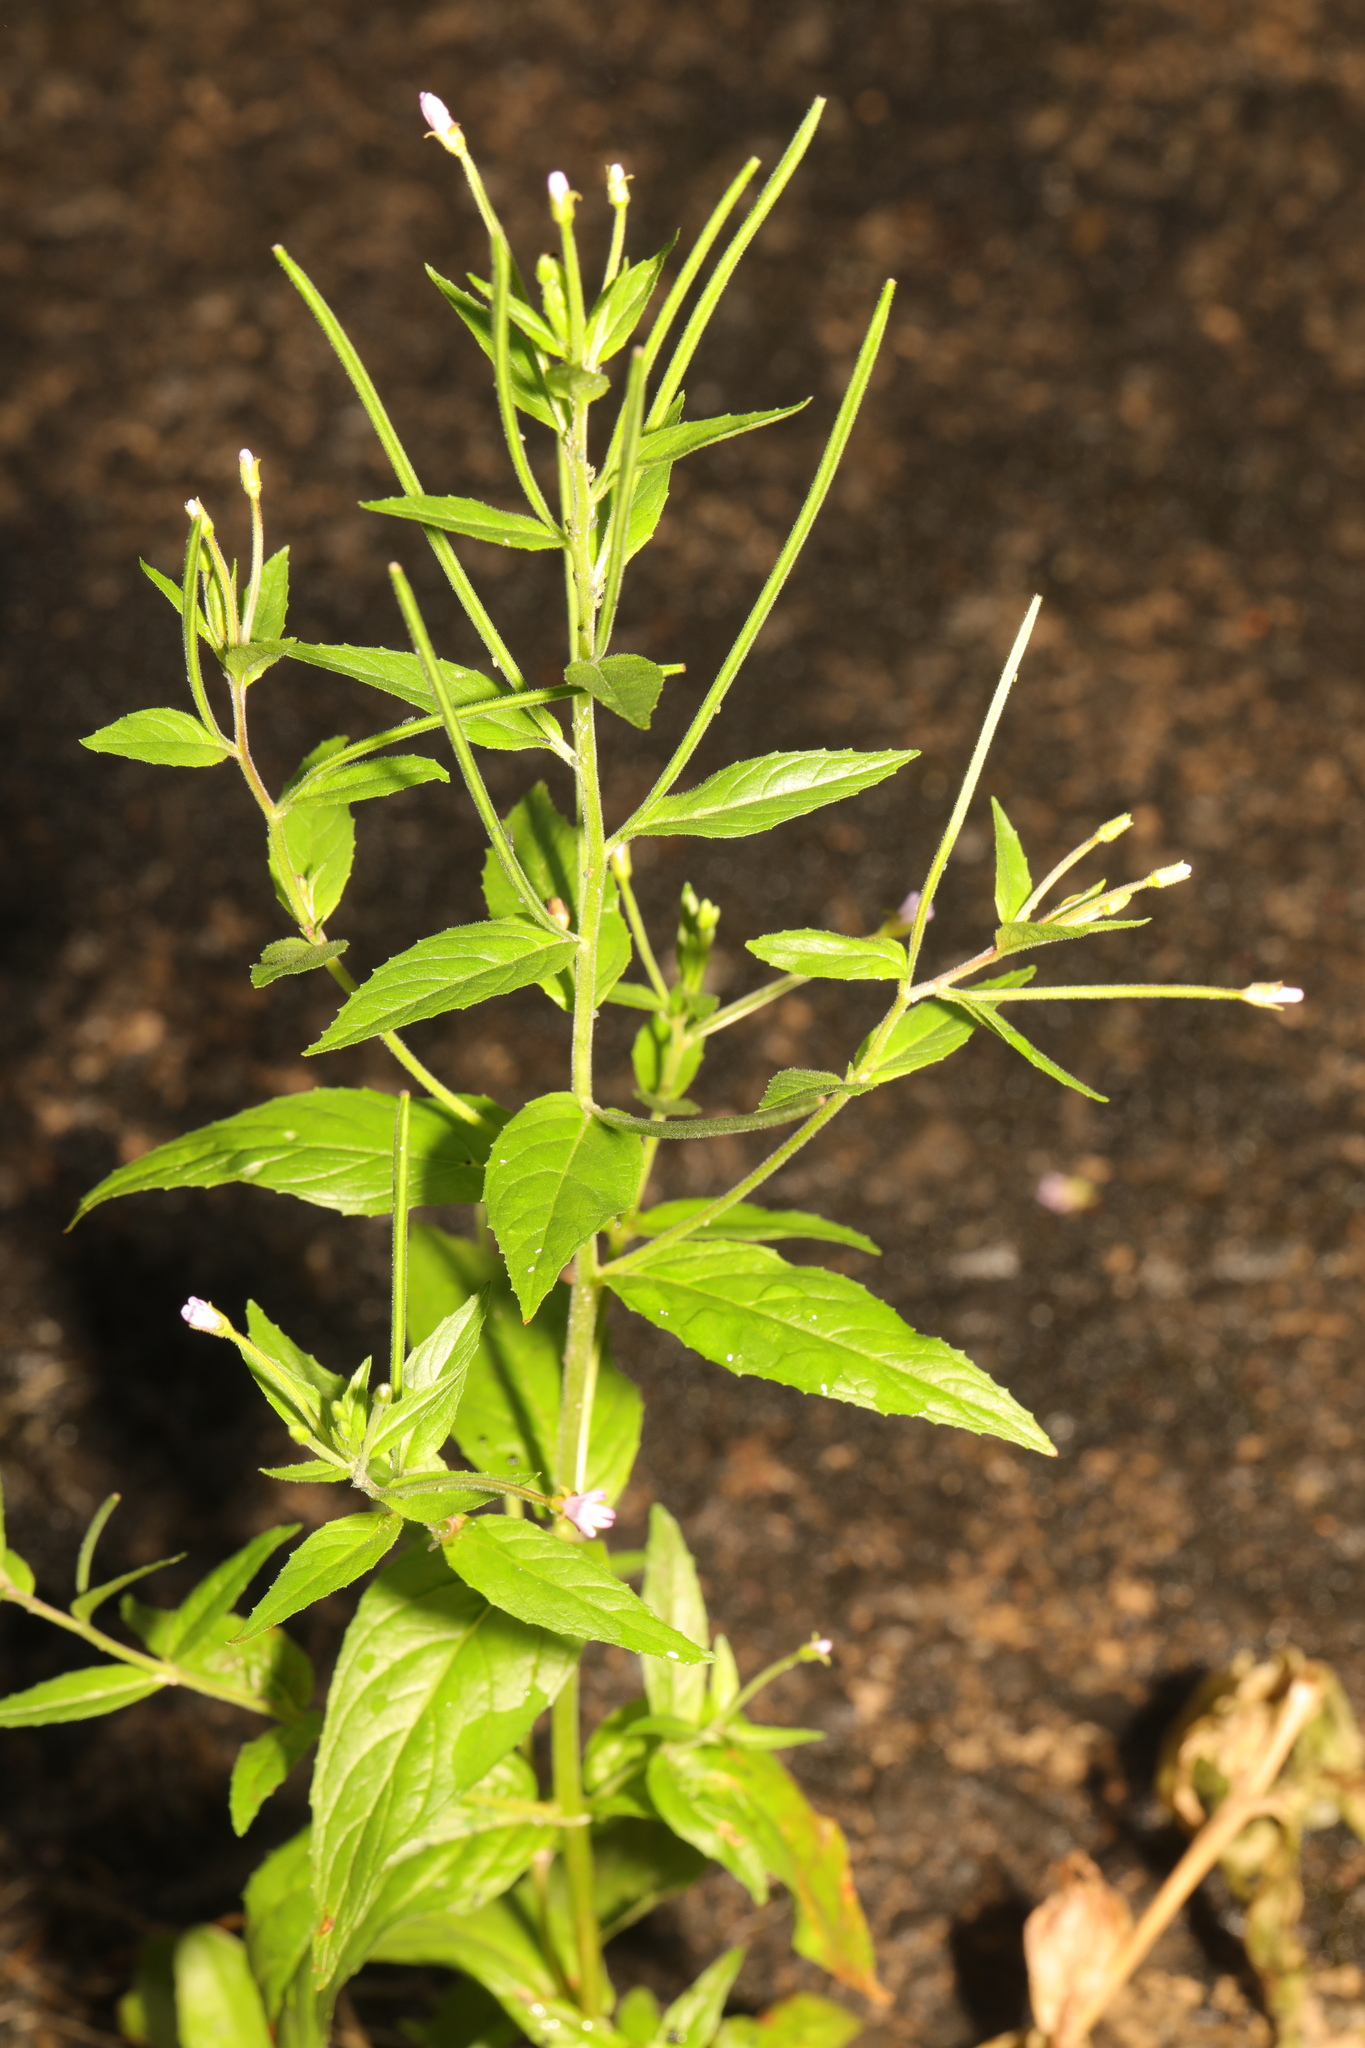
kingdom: Plantae
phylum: Tracheophyta
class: Magnoliopsida
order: Myrtales
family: Onagraceae
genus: Epilobium
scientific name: Epilobium ciliatum
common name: American willowherb
